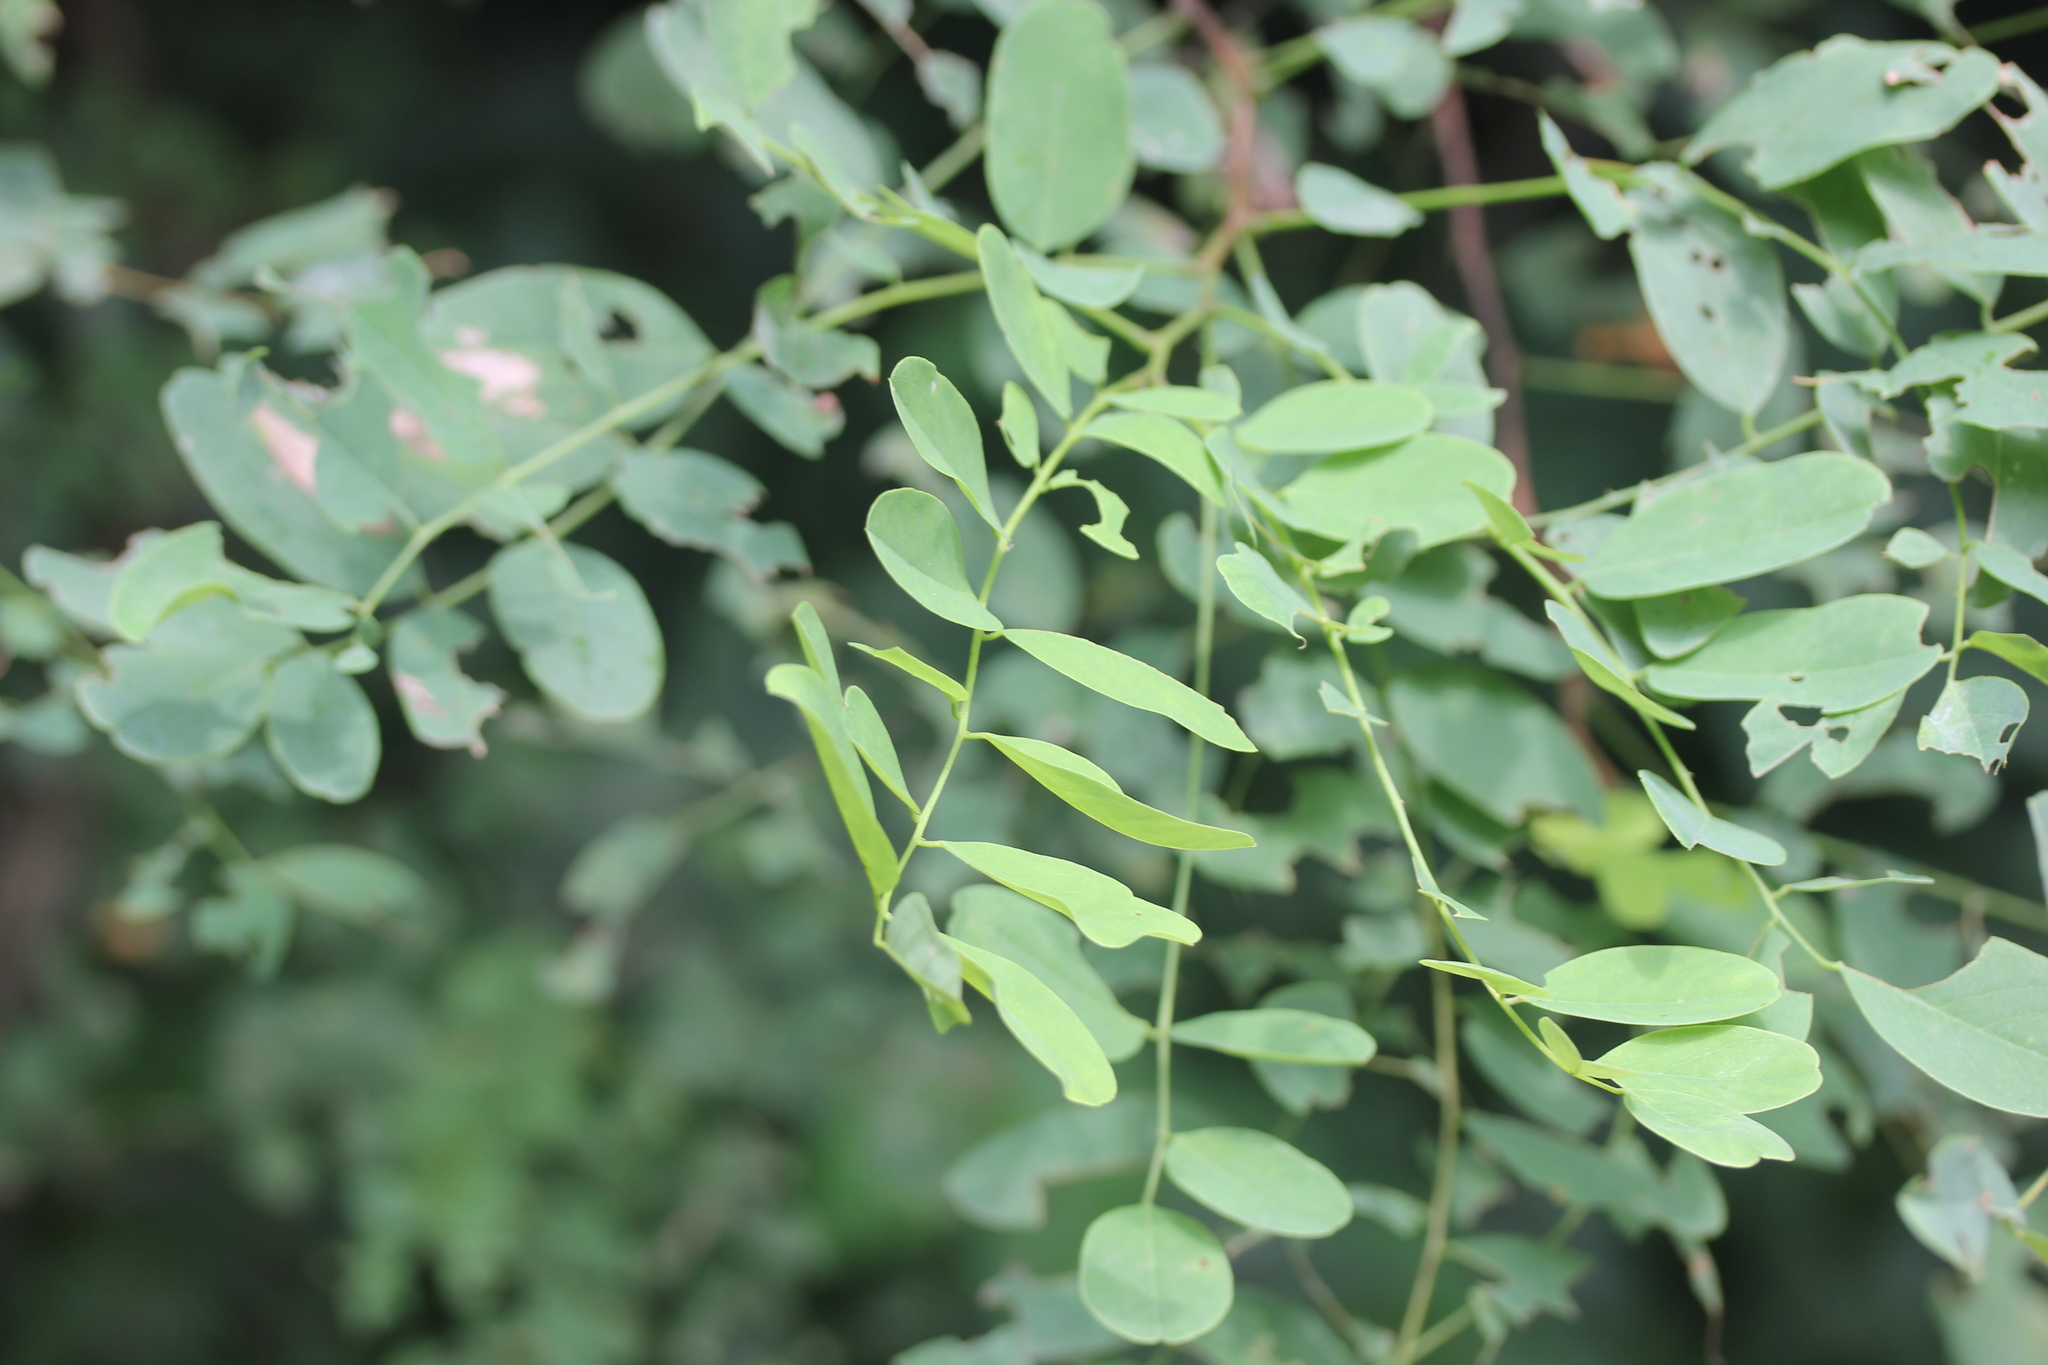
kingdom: Plantae
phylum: Tracheophyta
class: Magnoliopsida
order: Fabales
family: Fabaceae
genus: Robinia
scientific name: Robinia pseudoacacia
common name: Black locust
